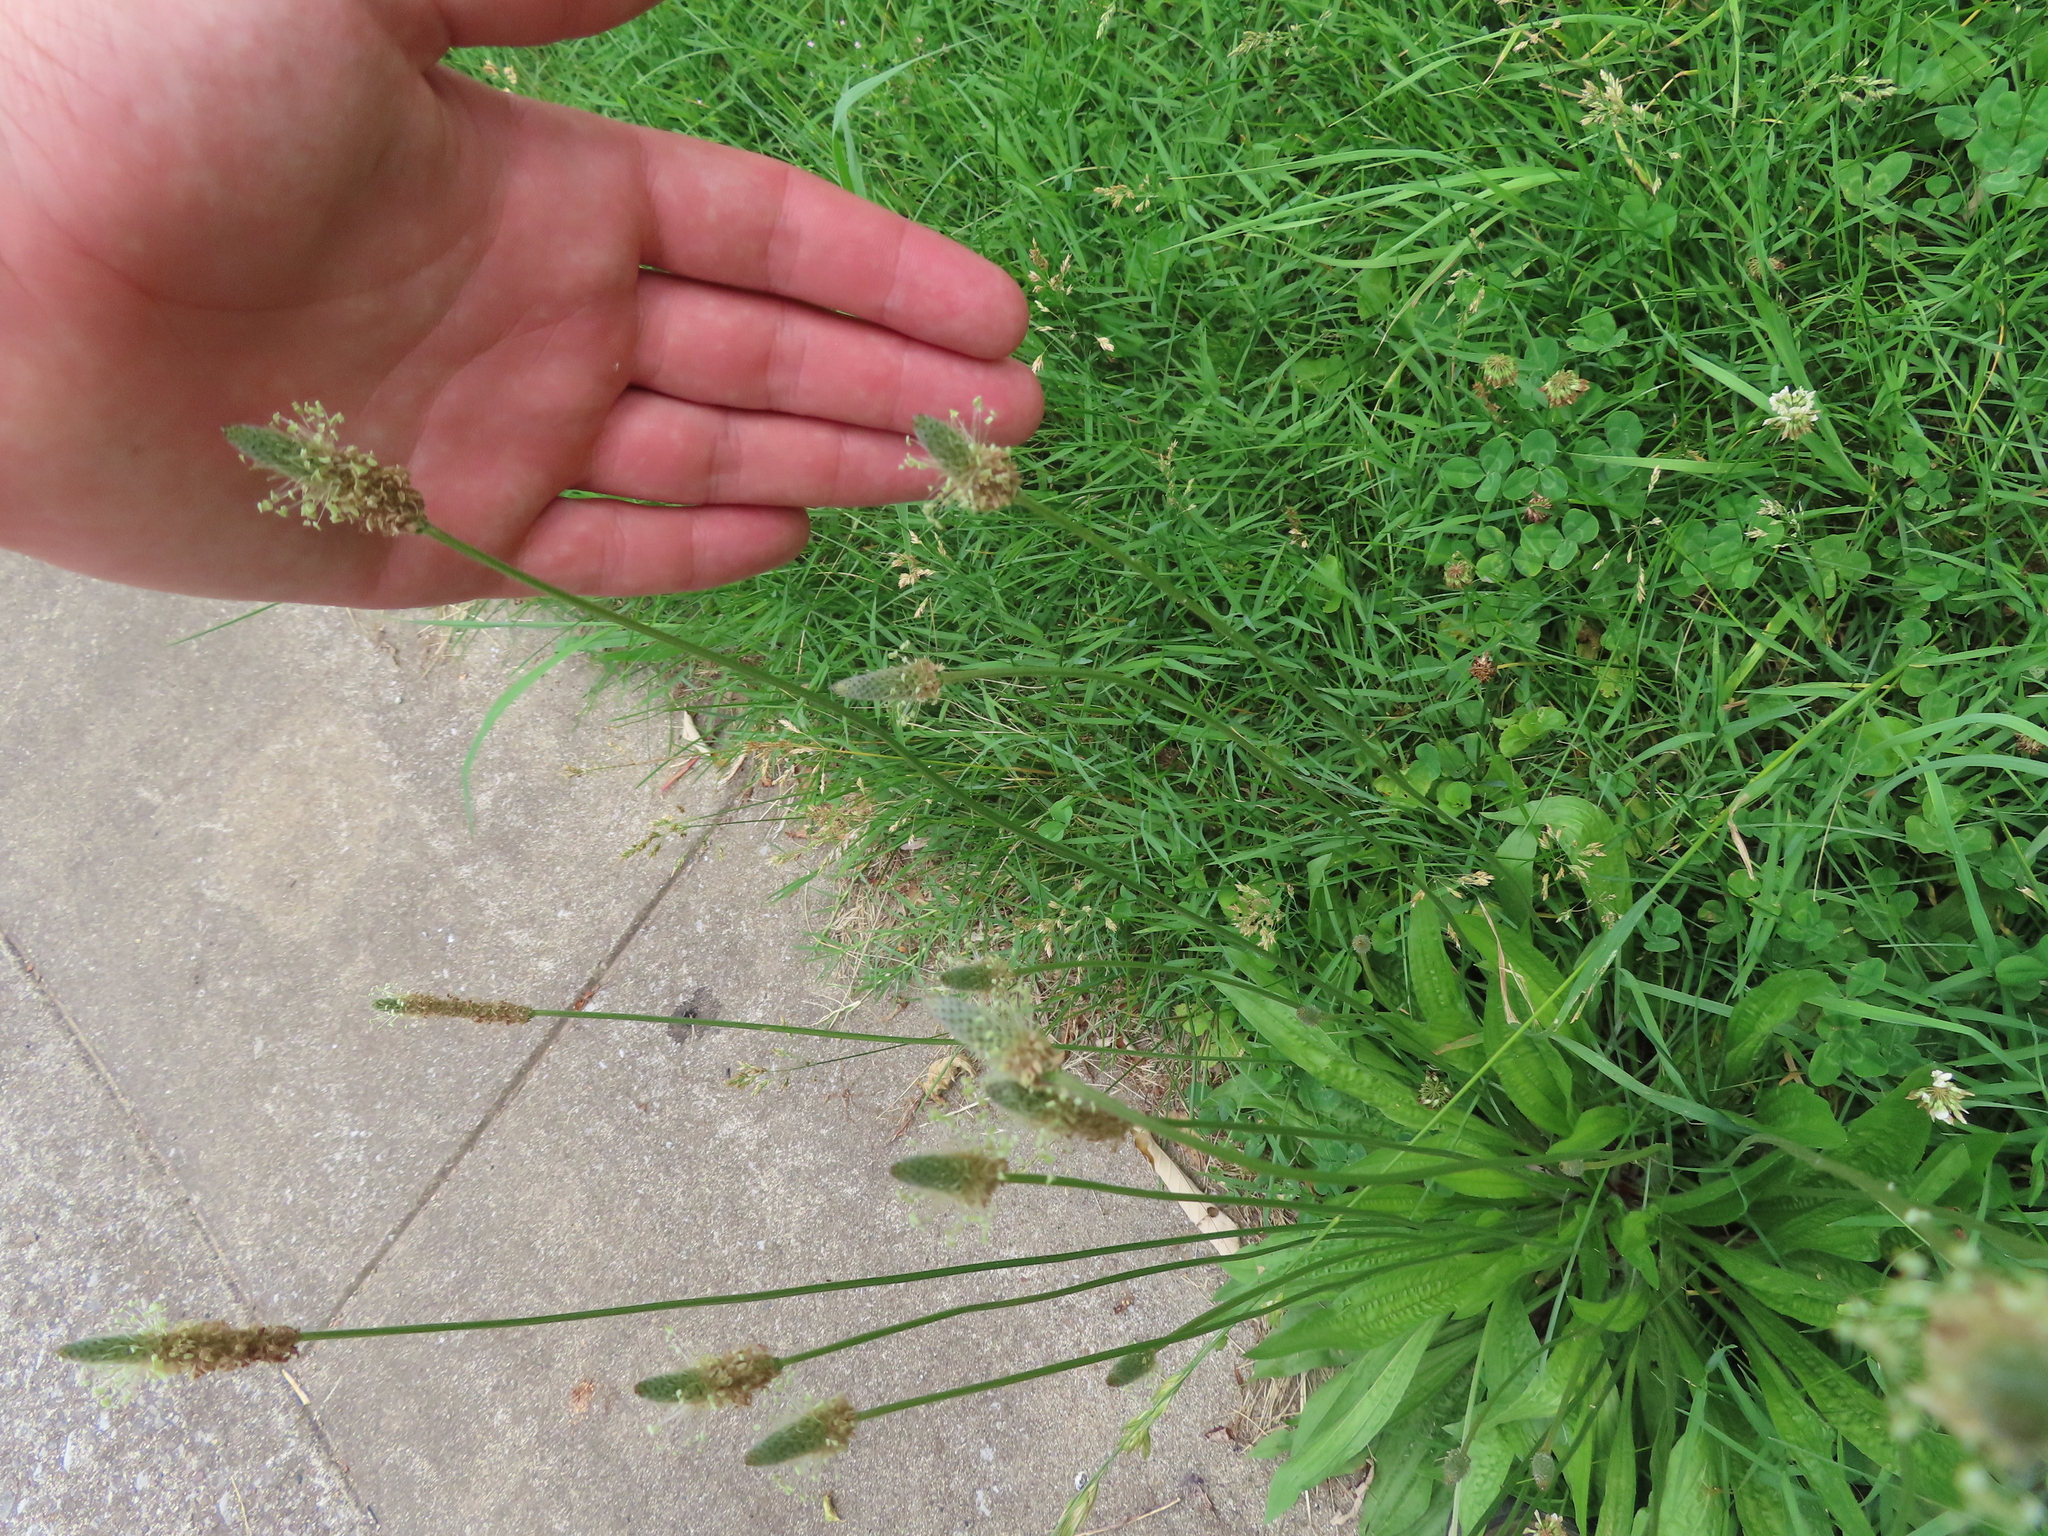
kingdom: Plantae
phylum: Tracheophyta
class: Magnoliopsida
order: Lamiales
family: Plantaginaceae
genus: Plantago
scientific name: Plantago lanceolata
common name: Ribwort plantain
